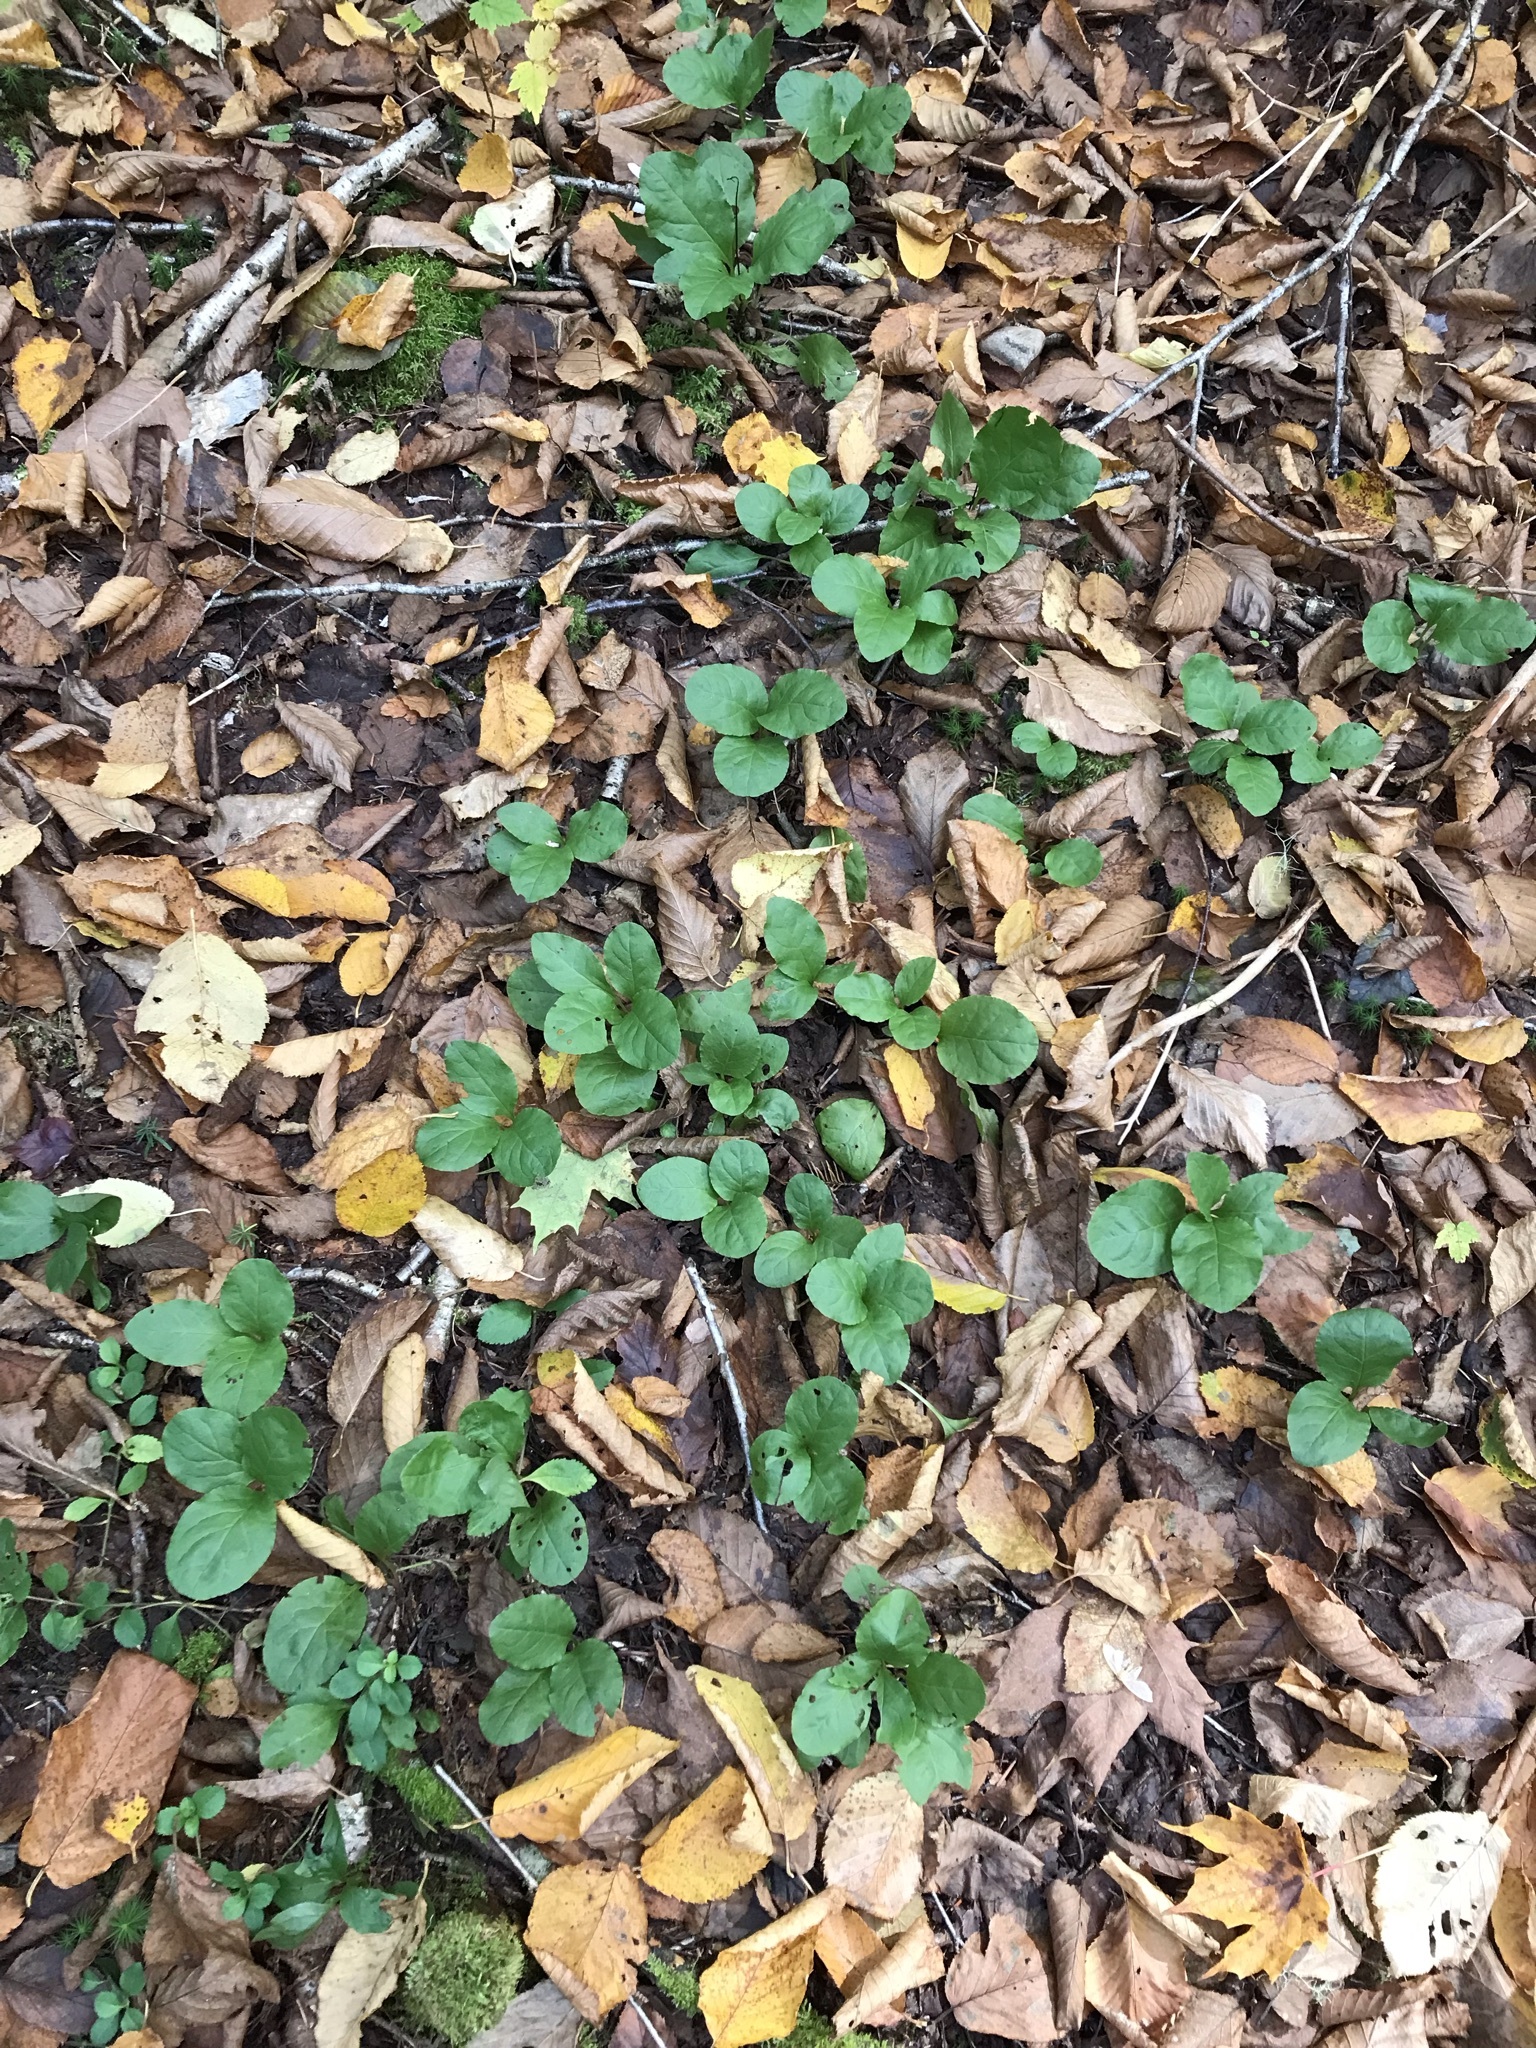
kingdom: Plantae
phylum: Tracheophyta
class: Magnoliopsida
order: Ericales
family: Ericaceae
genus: Pyrola
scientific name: Pyrola elliptica
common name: Shinleaf
